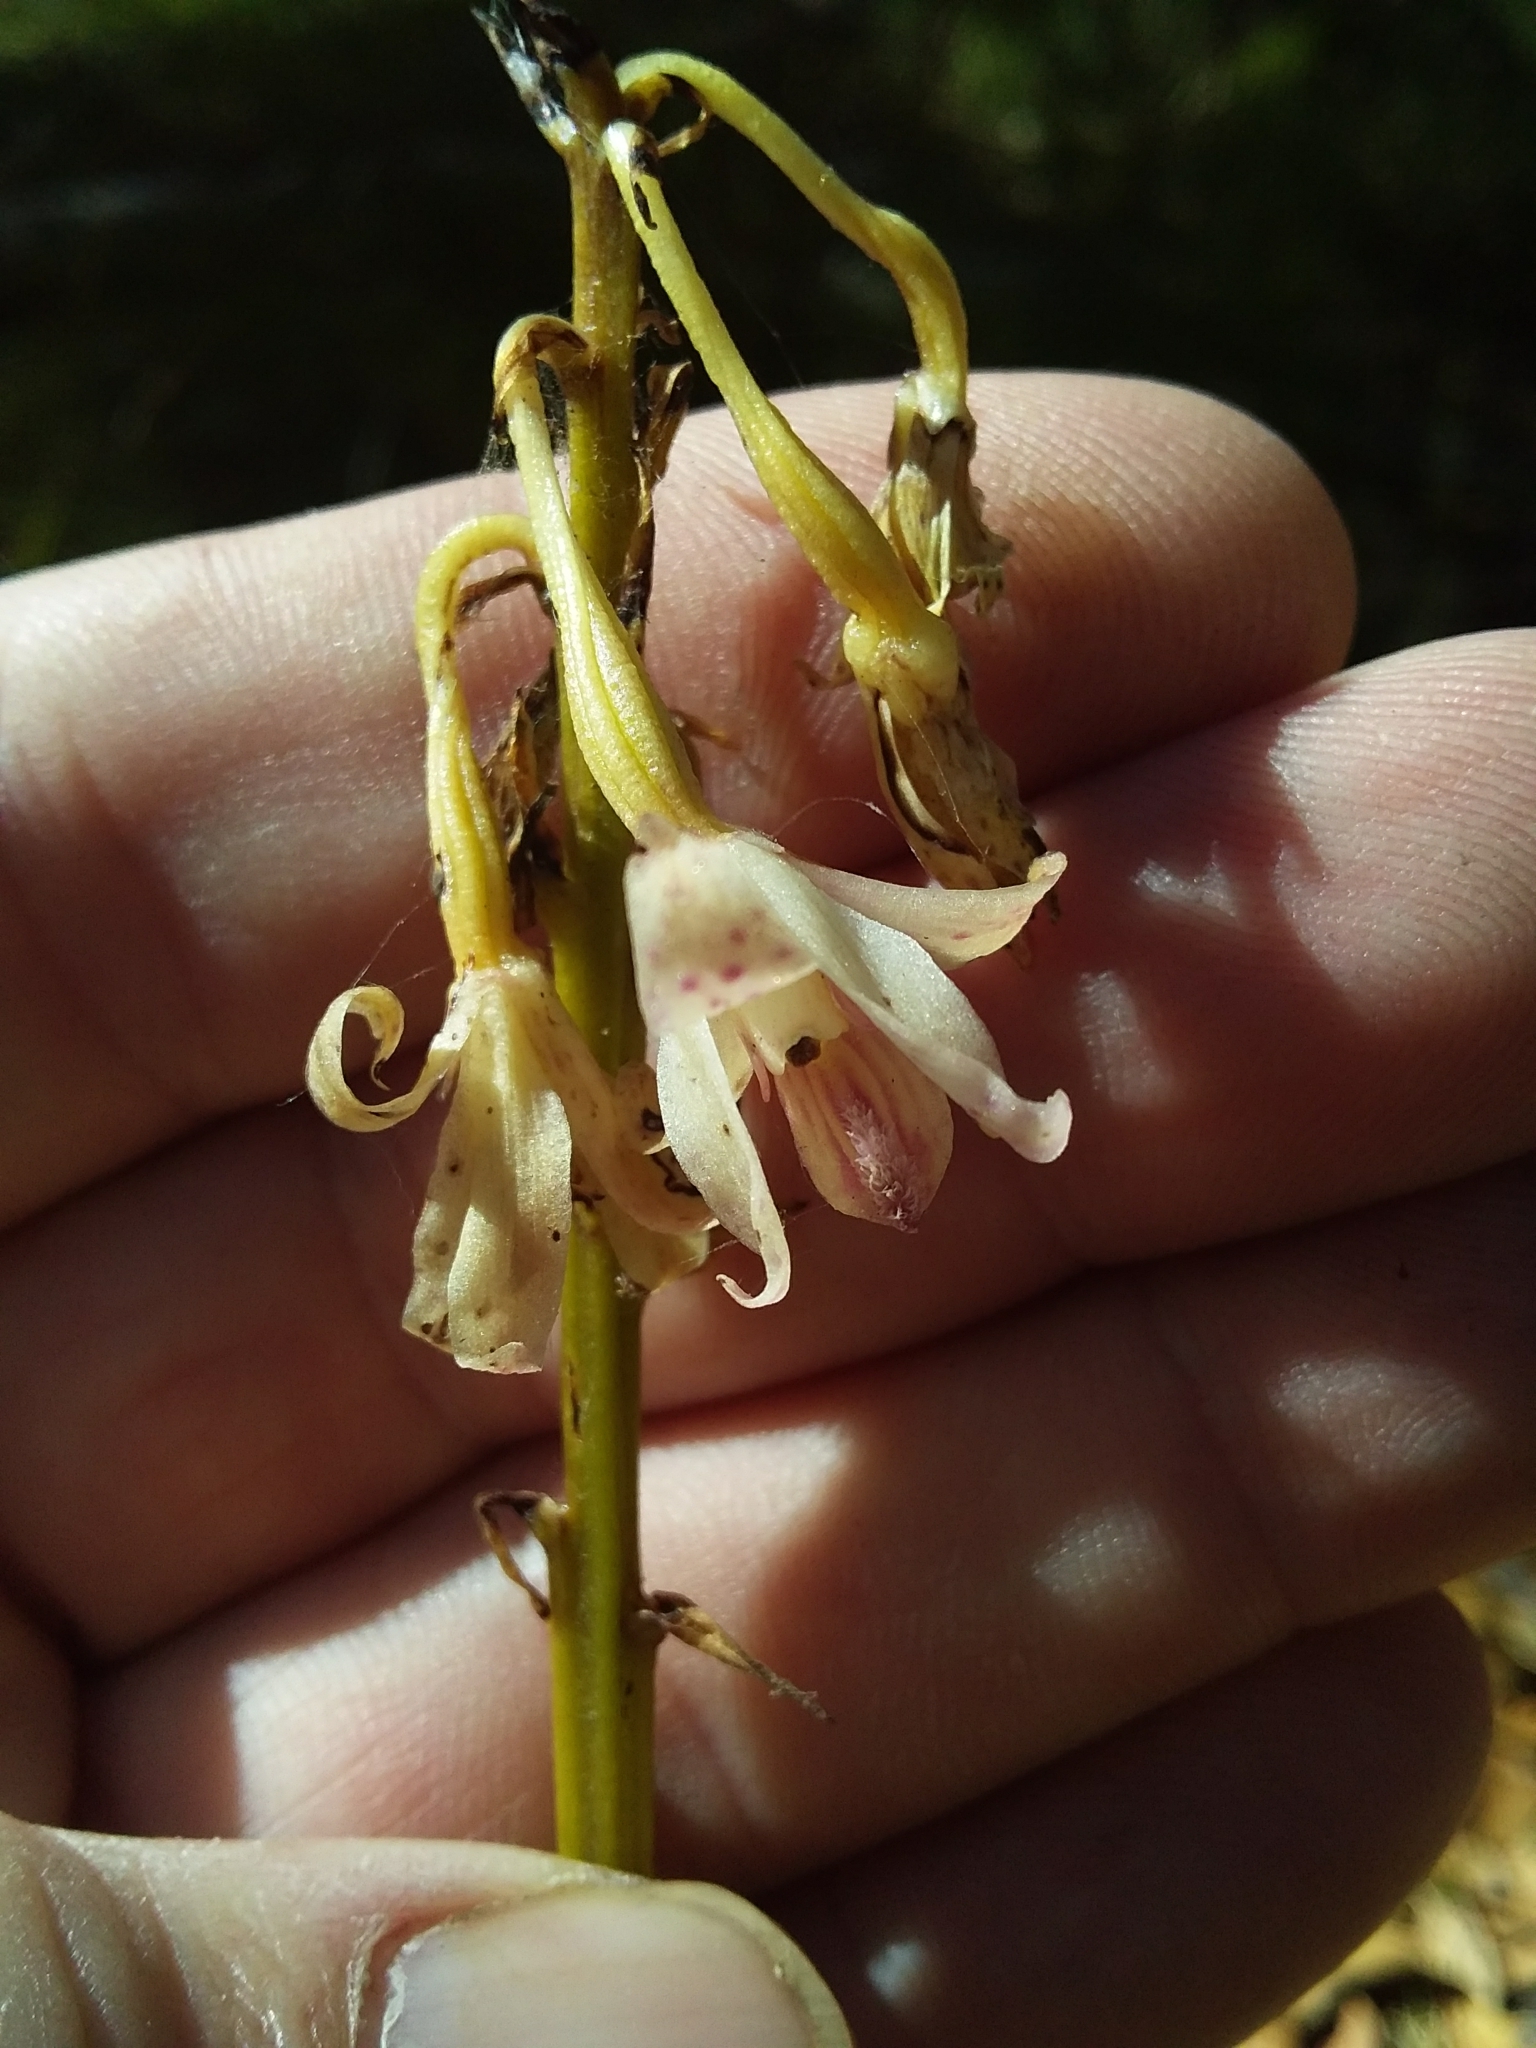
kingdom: Plantae
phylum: Tracheophyta
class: Liliopsida
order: Asparagales
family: Orchidaceae
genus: Dipodium
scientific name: Dipodium roseum
